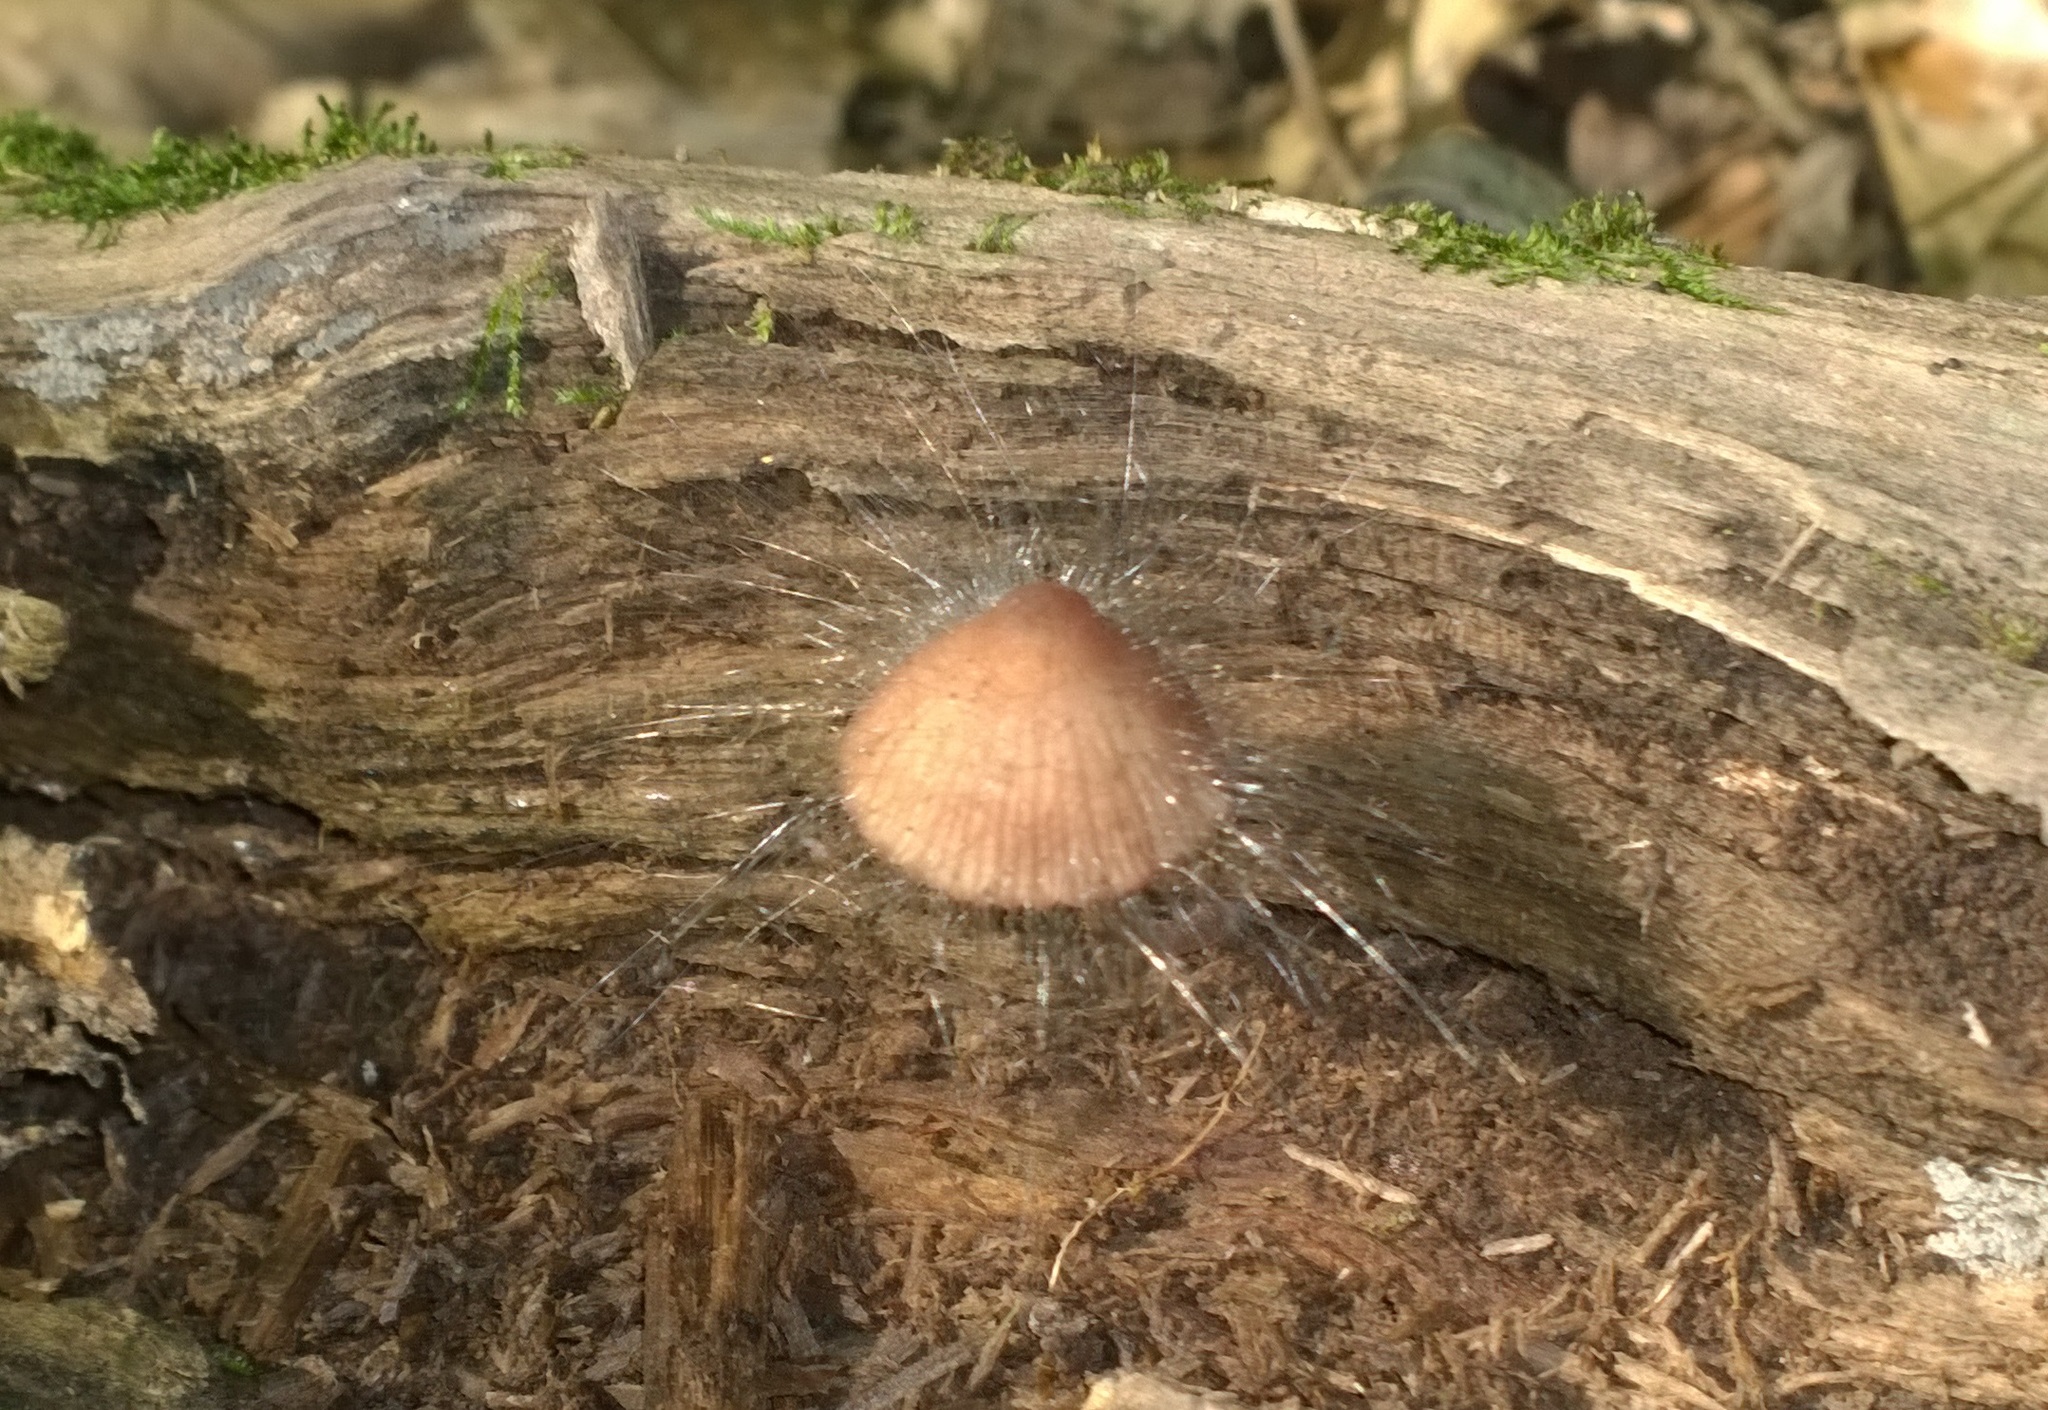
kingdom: Fungi
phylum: Mucoromycota
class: Mucoromycetes
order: Mucorales
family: Phycomycetaceae
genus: Spinellus
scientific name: Spinellus fusiger
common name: Bonnet mould
